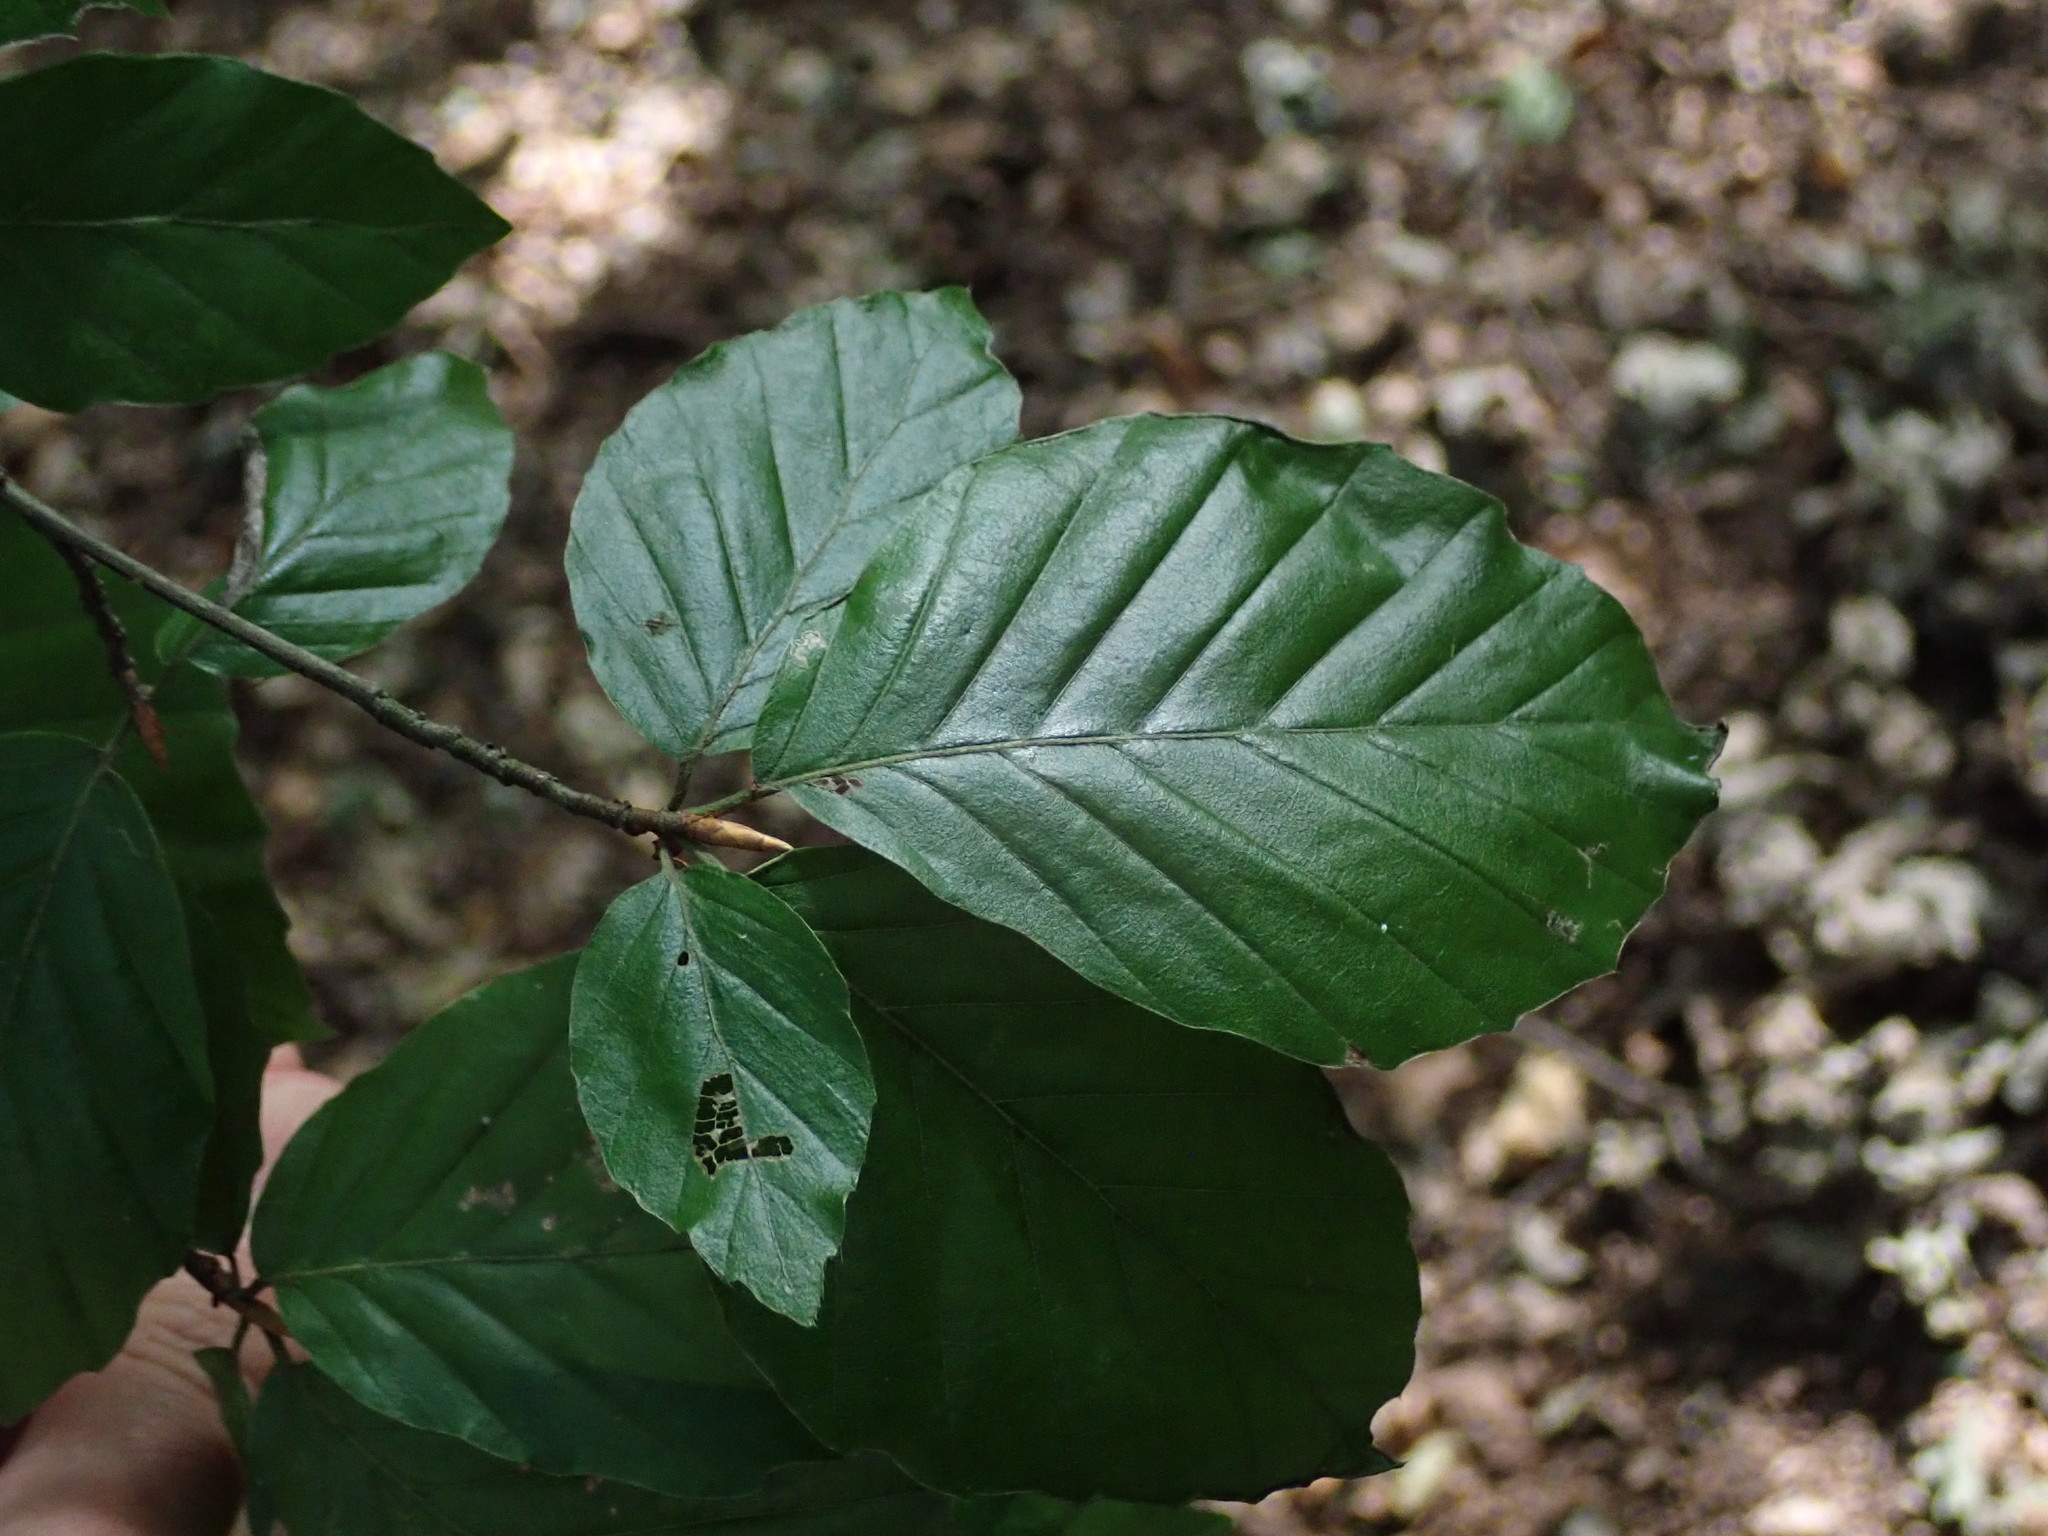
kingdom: Plantae
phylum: Tracheophyta
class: Magnoliopsida
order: Fagales
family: Fagaceae
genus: Fagus
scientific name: Fagus sylvatica
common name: Beech
